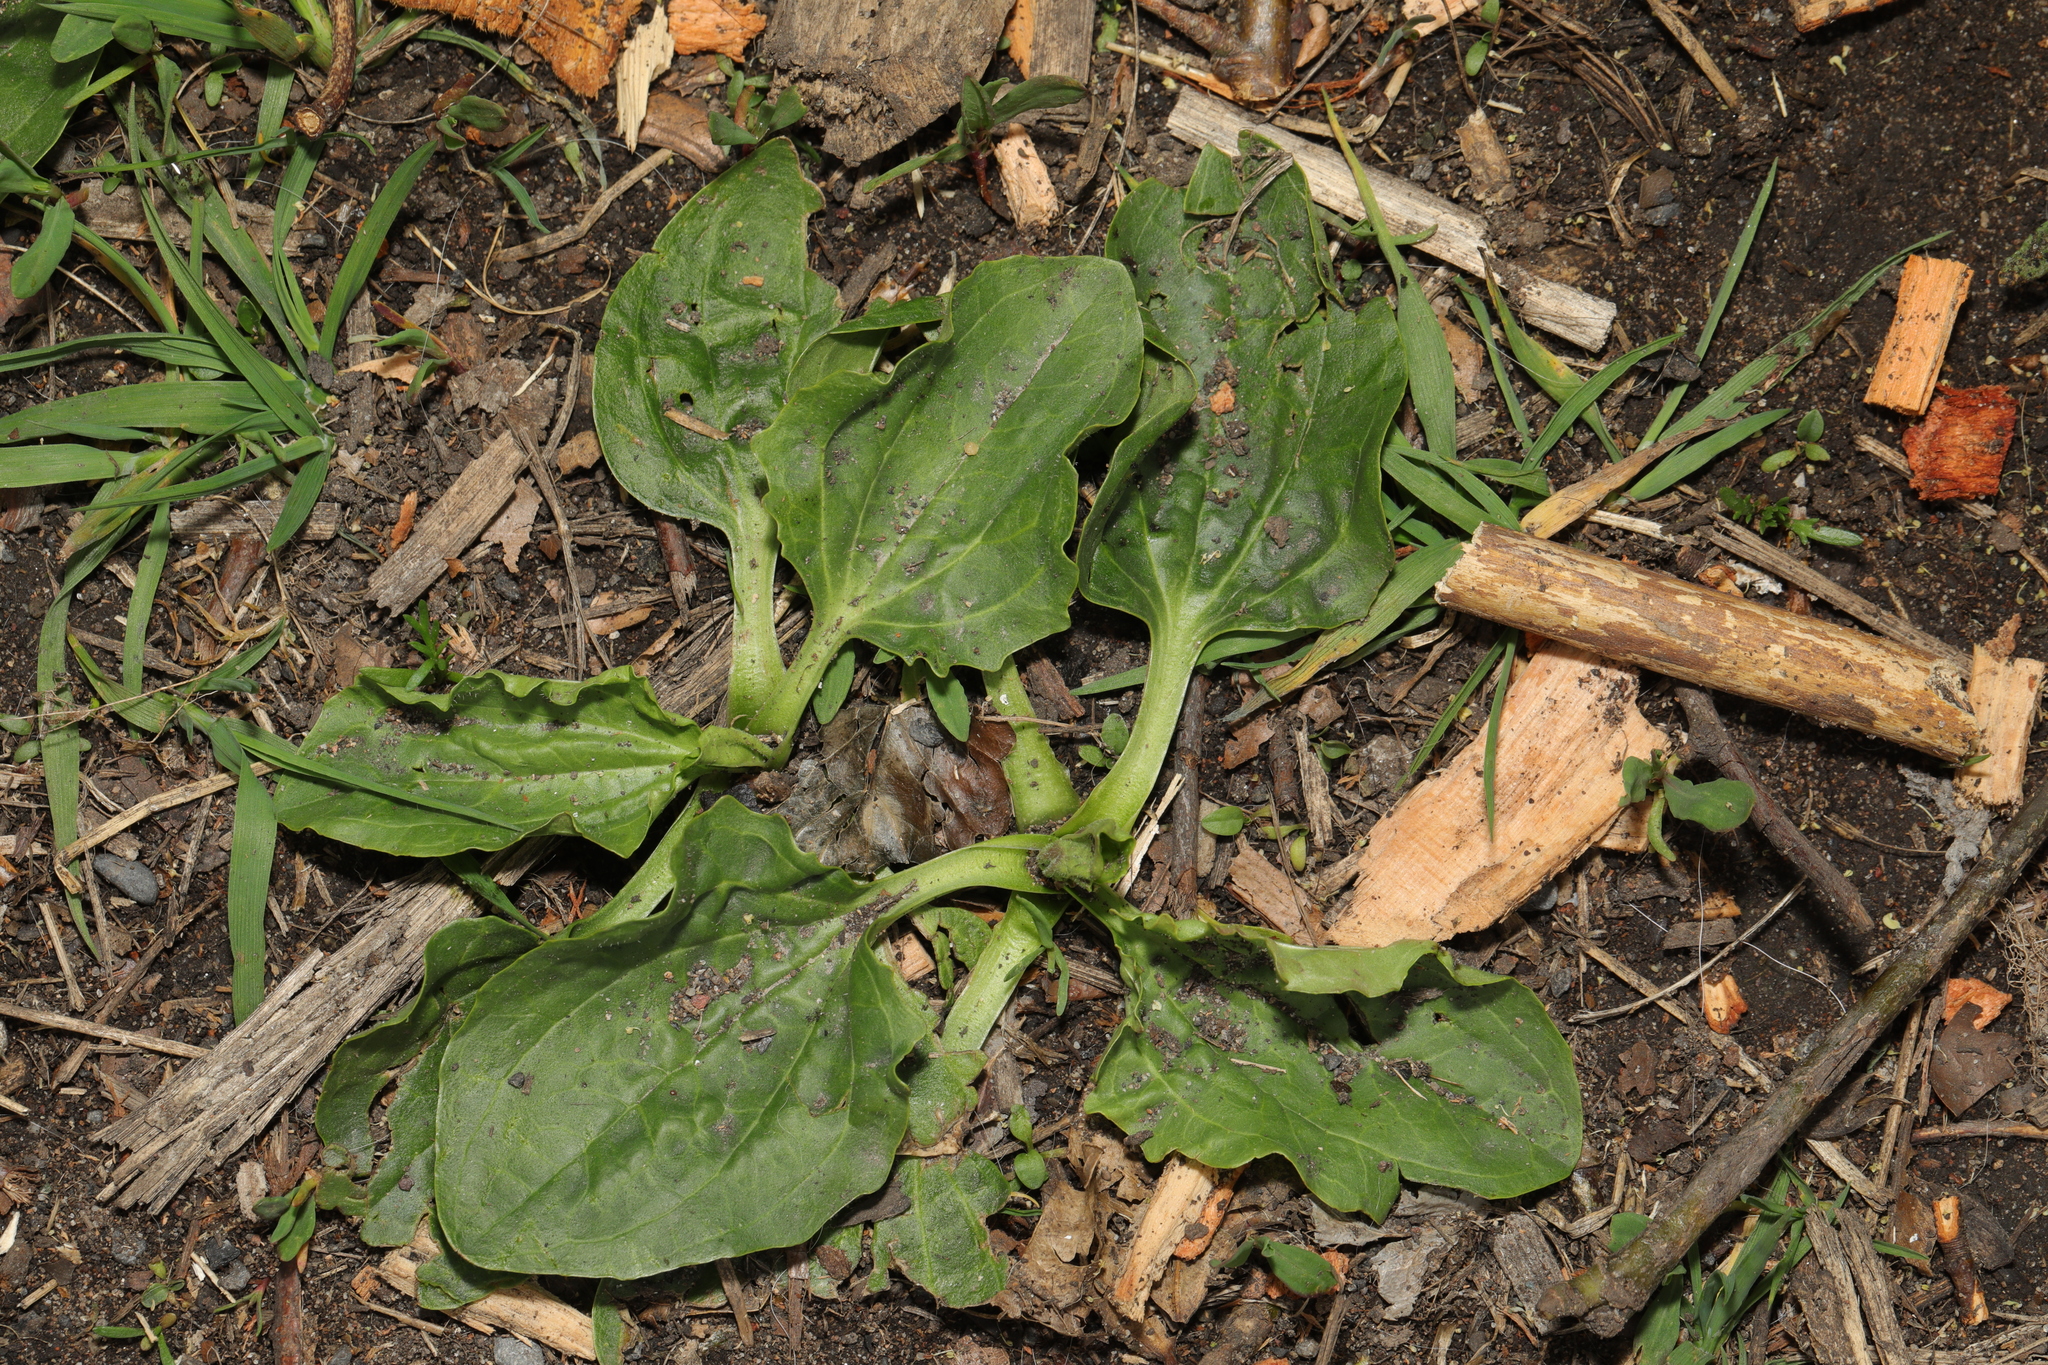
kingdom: Plantae
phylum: Tracheophyta
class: Magnoliopsida
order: Lamiales
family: Plantaginaceae
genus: Plantago
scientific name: Plantago major
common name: Common plantain
